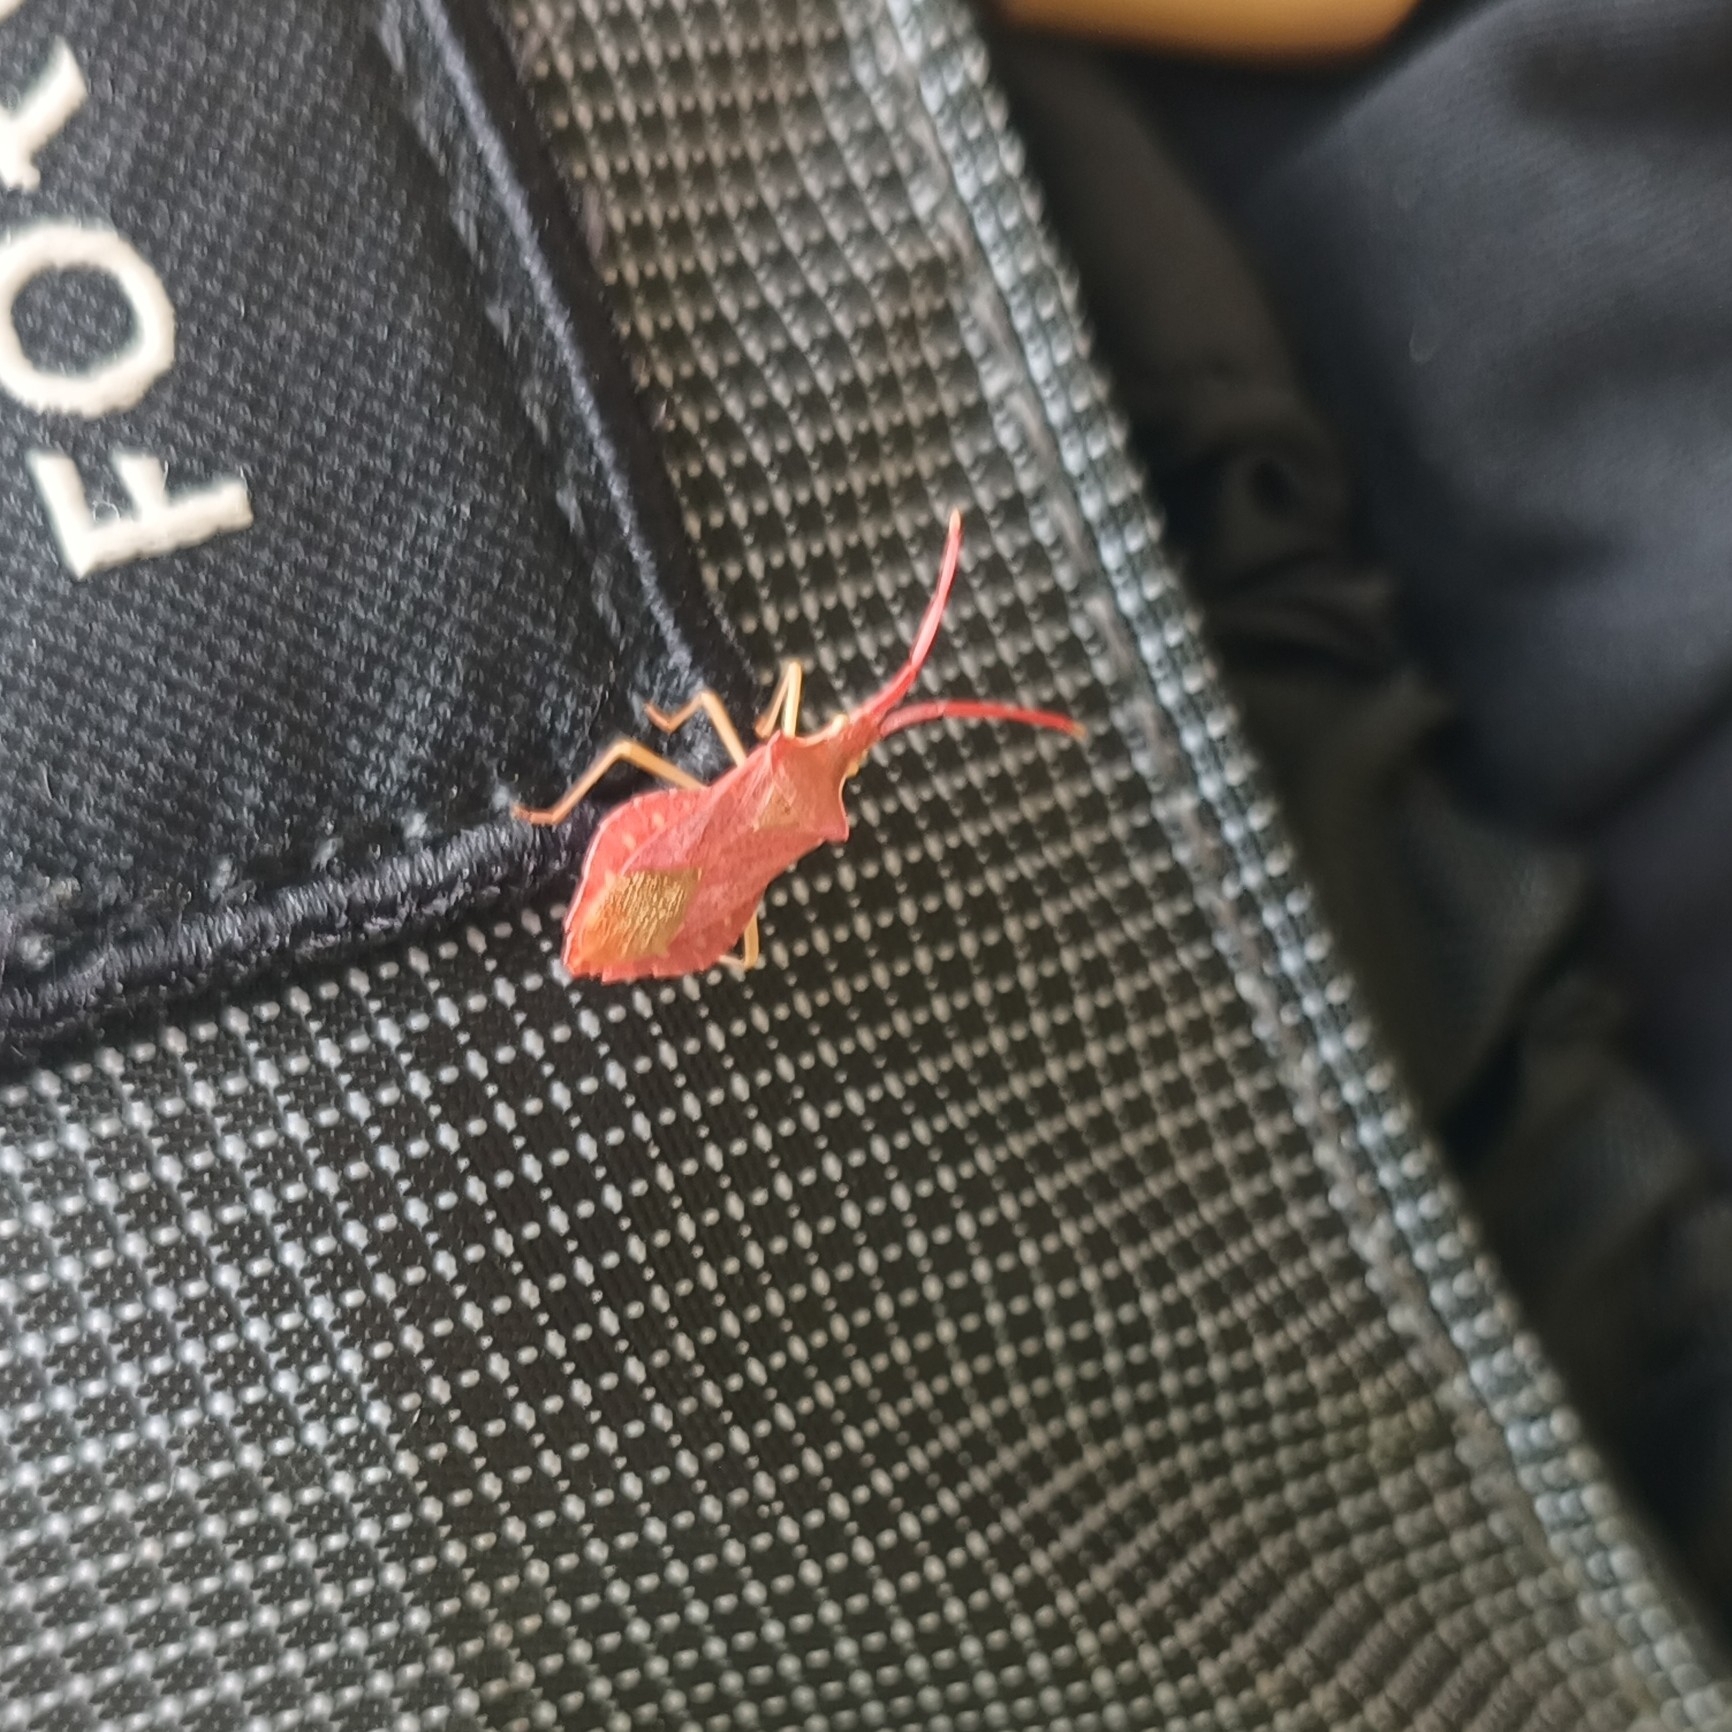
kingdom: Animalia
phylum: Arthropoda
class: Insecta
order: Hemiptera
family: Coreidae
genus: Haploprocta
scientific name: Haploprocta sulcicornis
